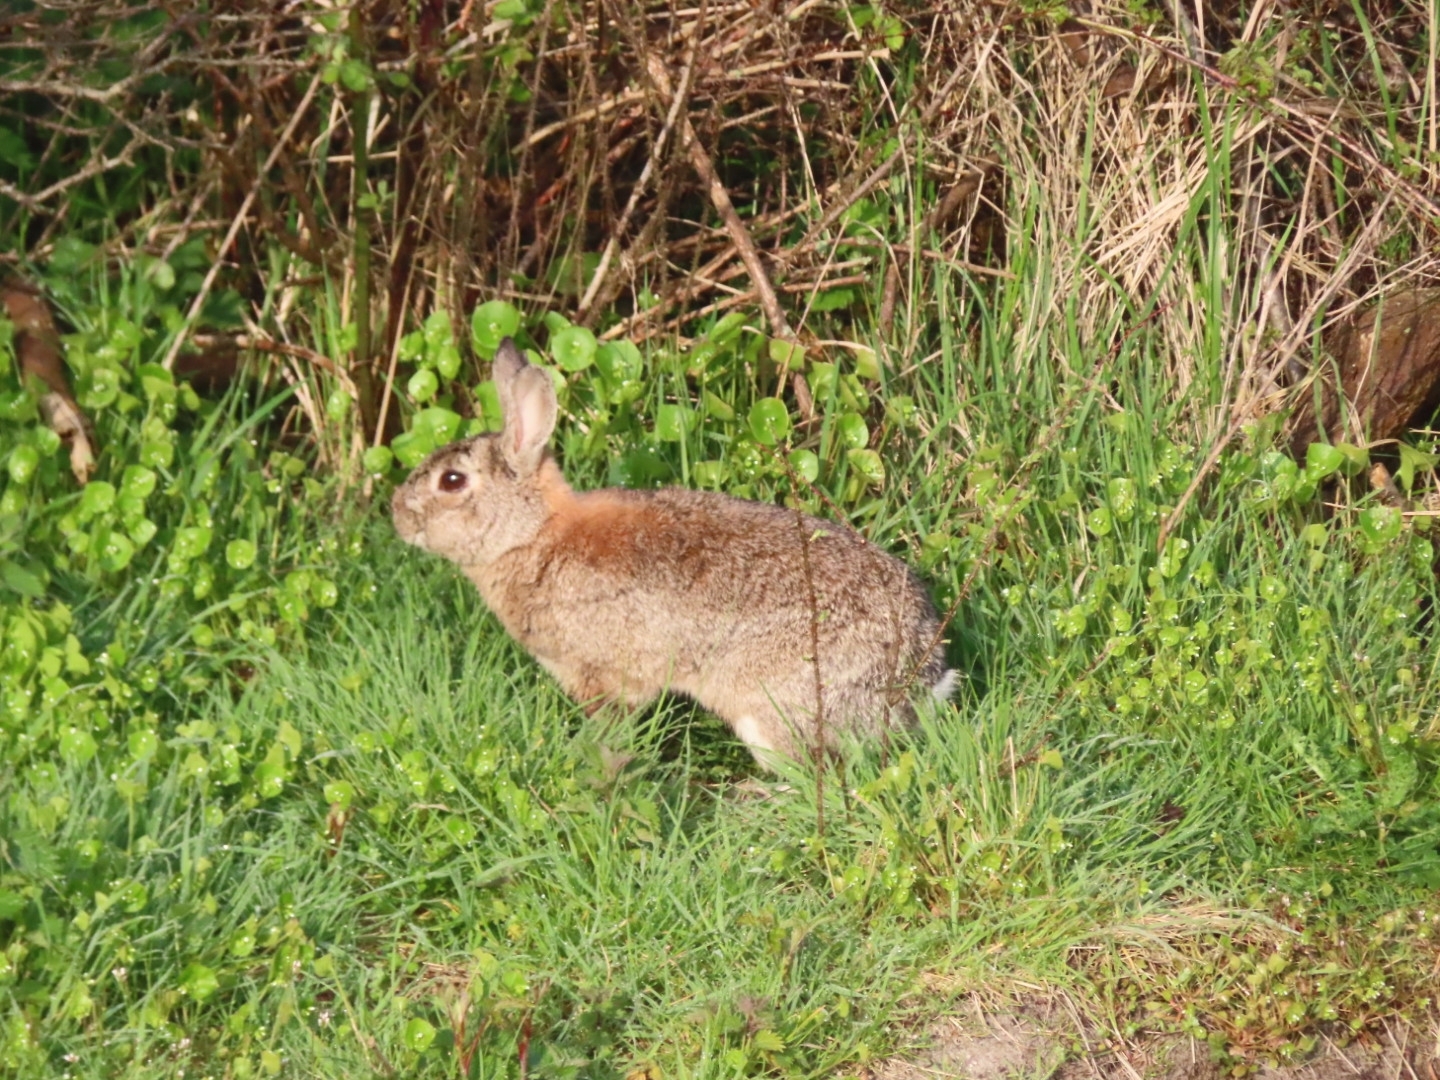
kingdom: Animalia
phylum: Chordata
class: Mammalia
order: Lagomorpha
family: Leporidae
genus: Oryctolagus
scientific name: Oryctolagus cuniculus
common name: European rabbit
